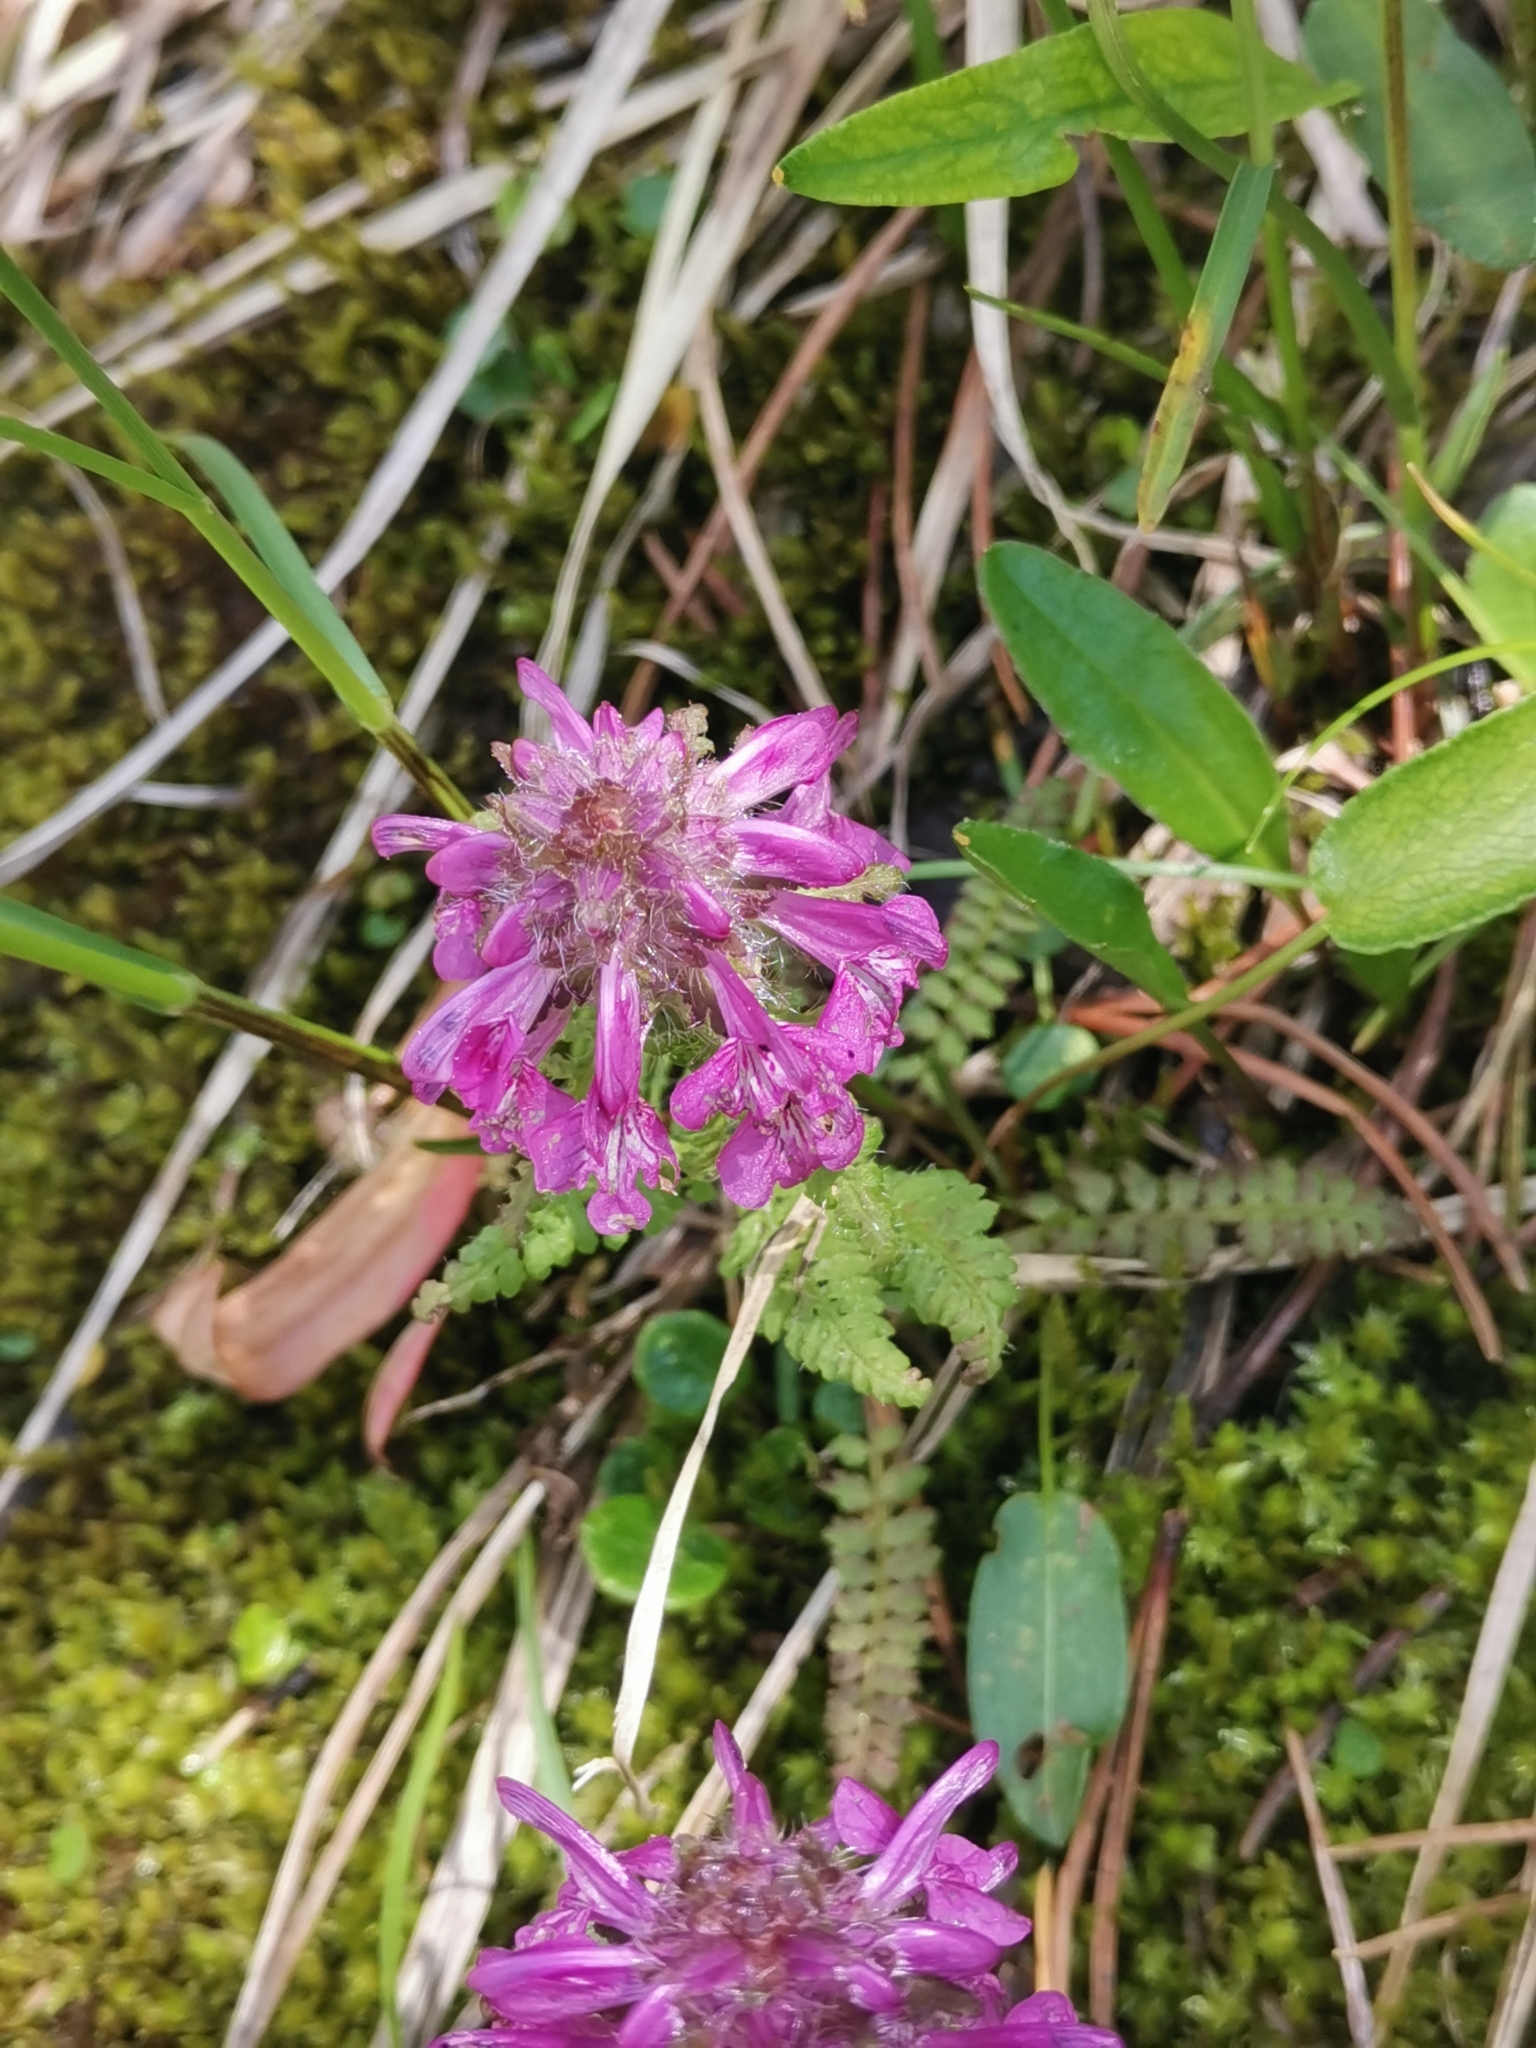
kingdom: Plantae
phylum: Tracheophyta
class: Magnoliopsida
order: Lamiales
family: Orobanchaceae
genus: Pedicularis
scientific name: Pedicularis verticillata
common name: Whorled lousewort
